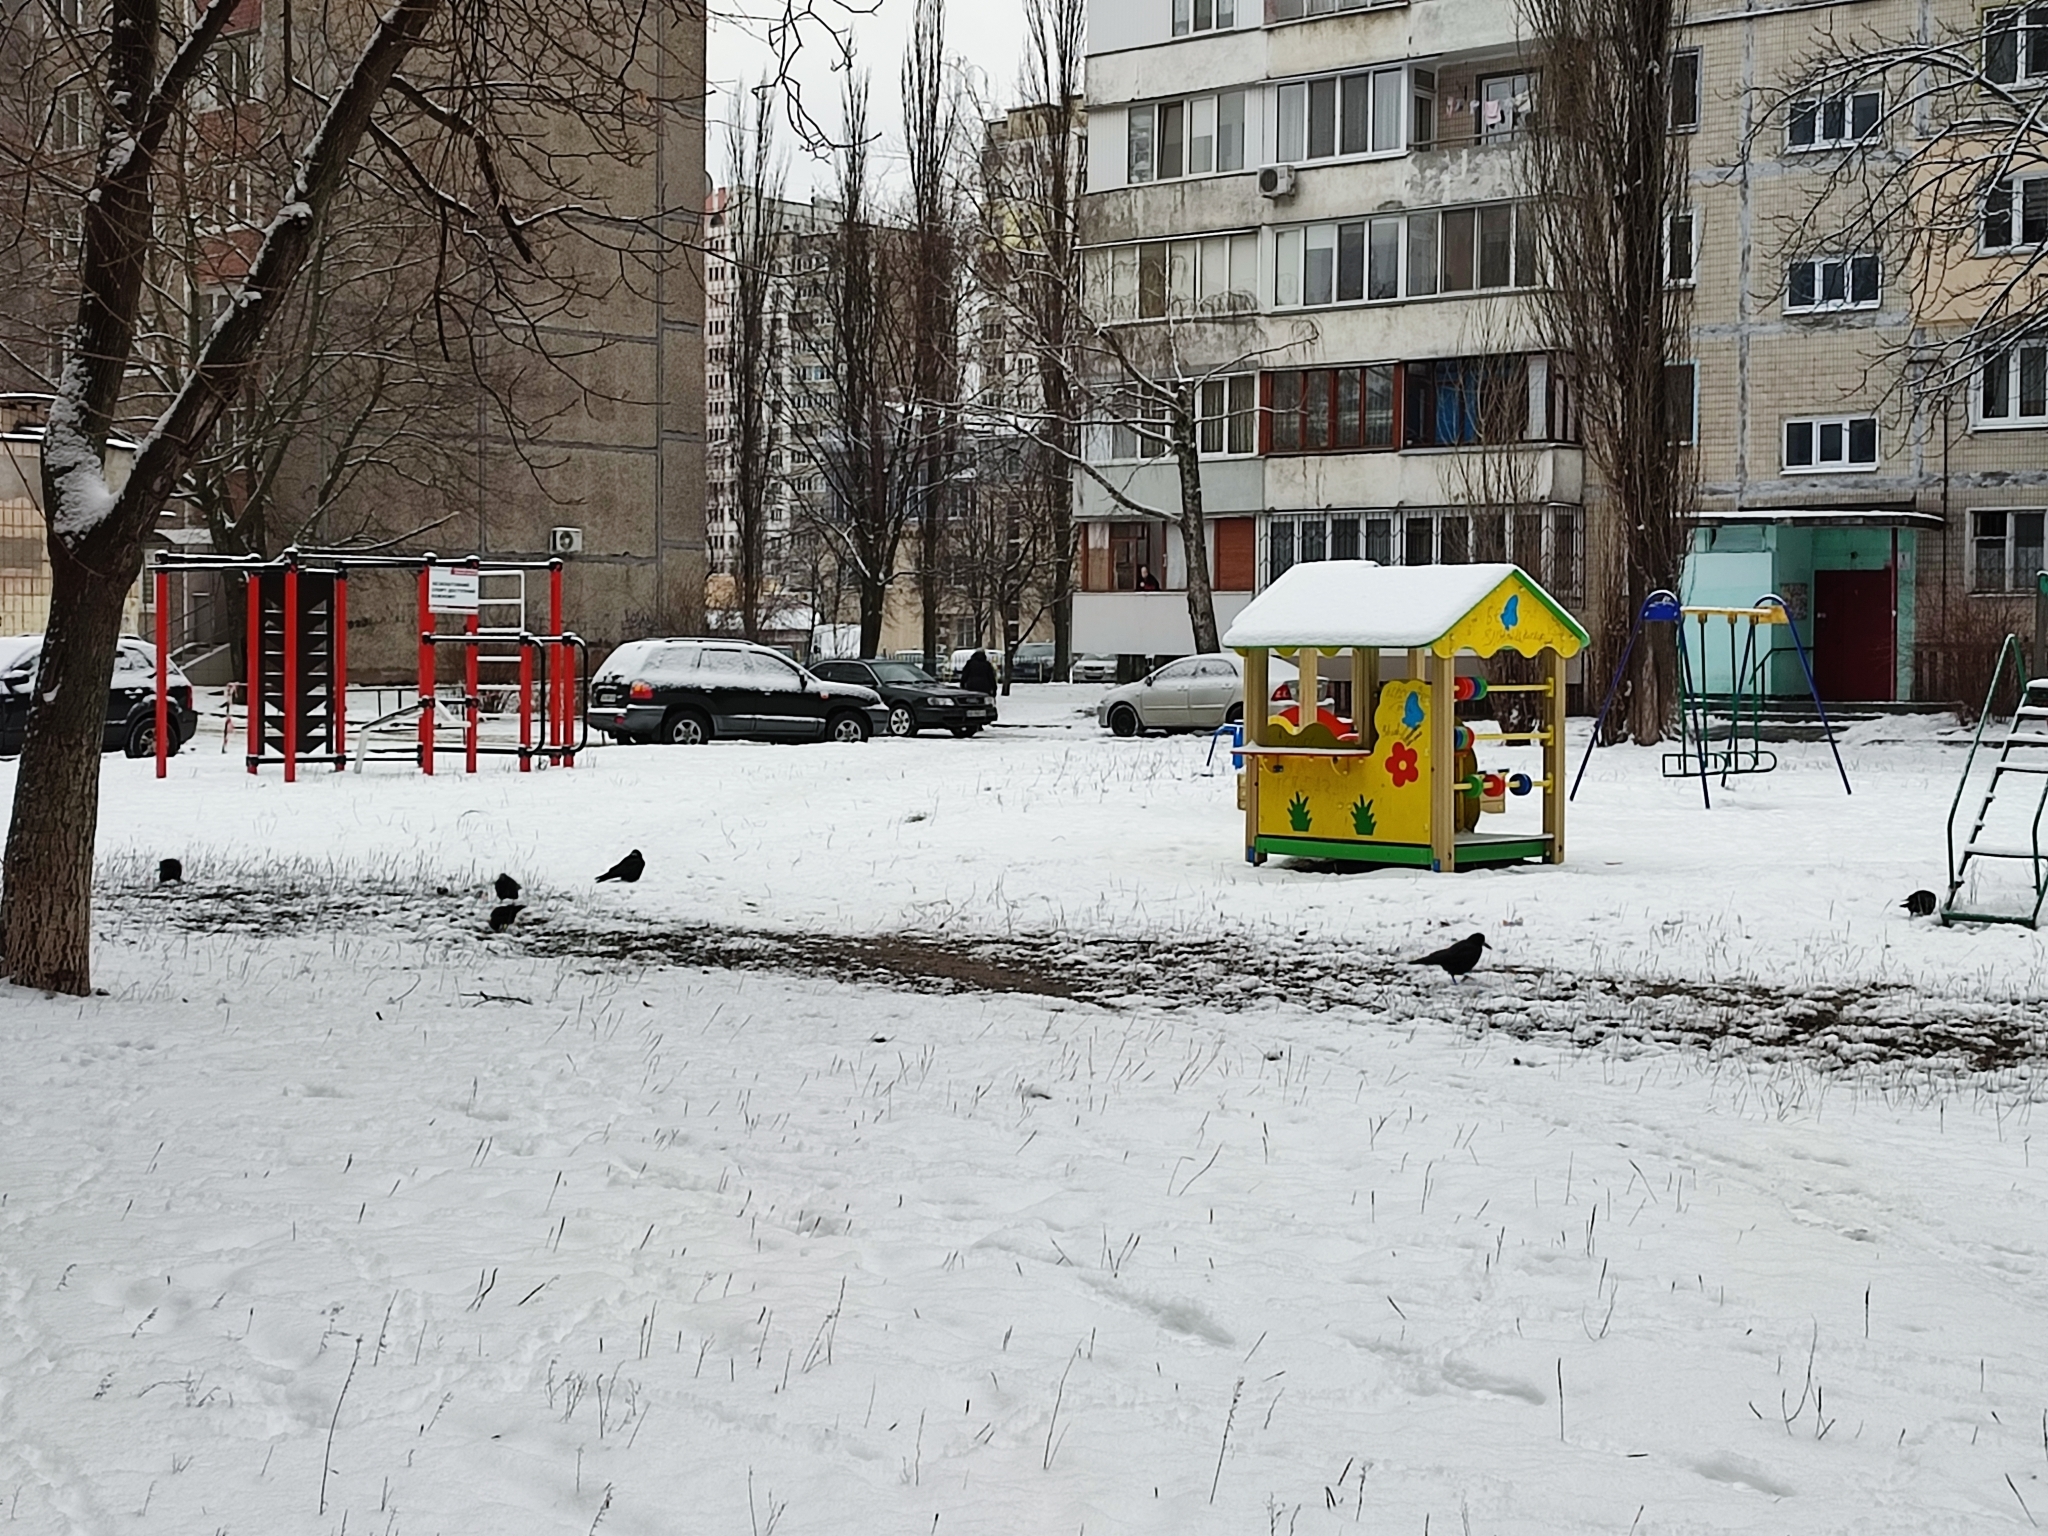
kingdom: Animalia
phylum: Chordata
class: Aves
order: Passeriformes
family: Corvidae
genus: Corvus
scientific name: Corvus frugilegus
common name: Rook
